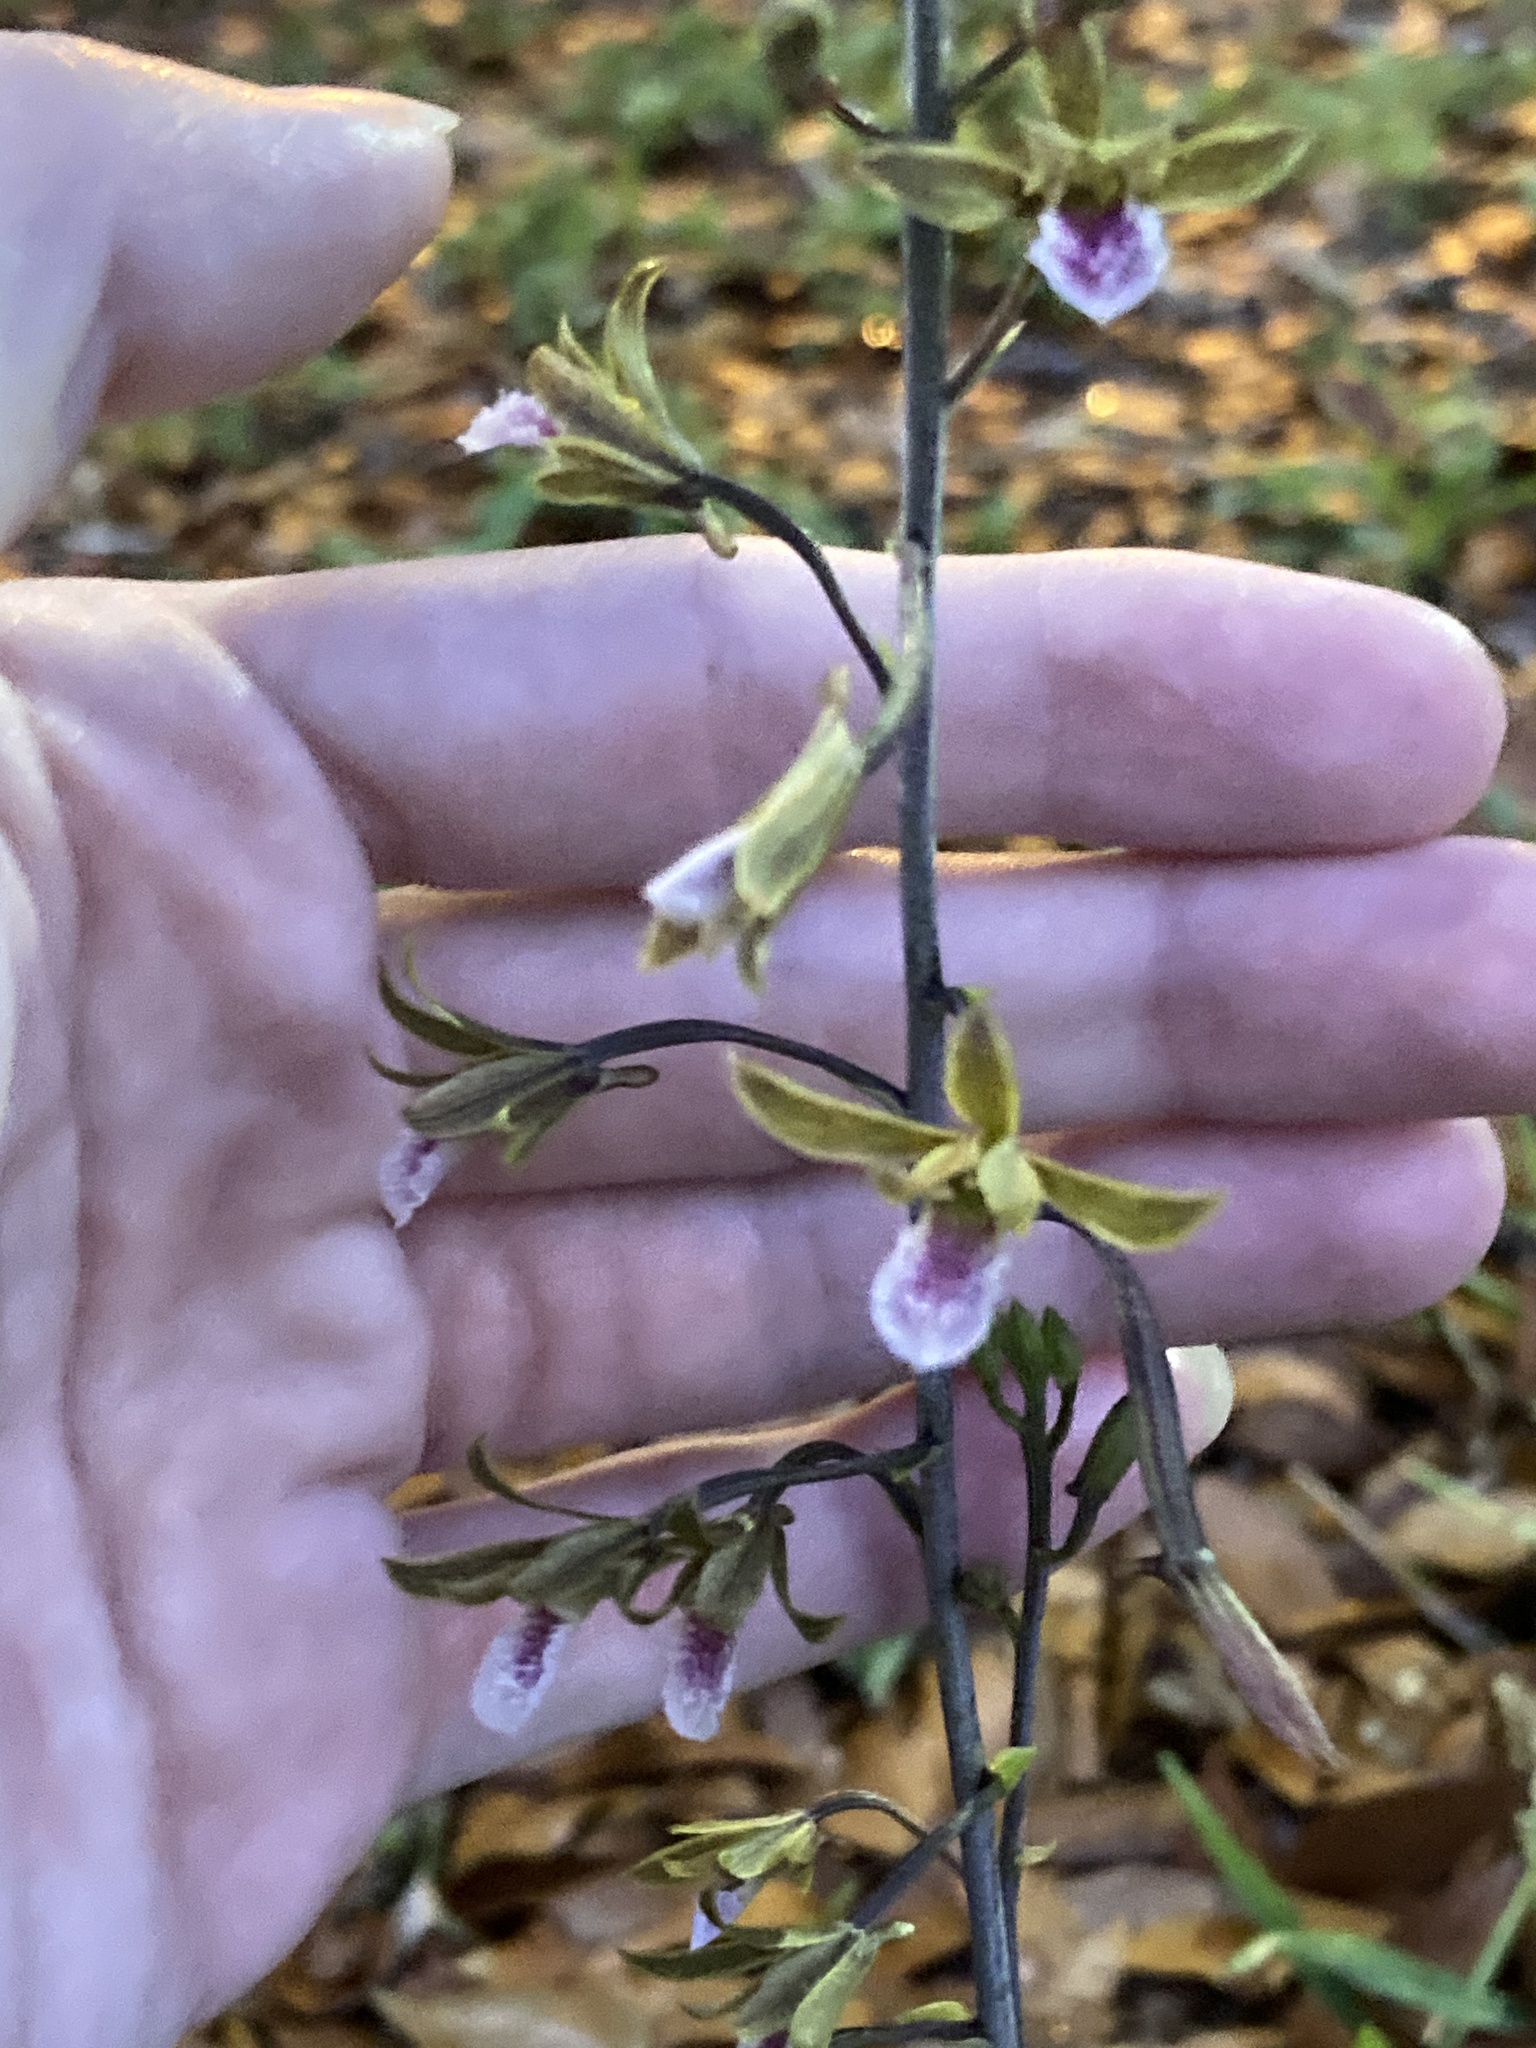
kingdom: Plantae
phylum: Tracheophyta
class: Liliopsida
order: Asparagales
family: Orchidaceae
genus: Eulophia
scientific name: Eulophia graminea
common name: Orchid
